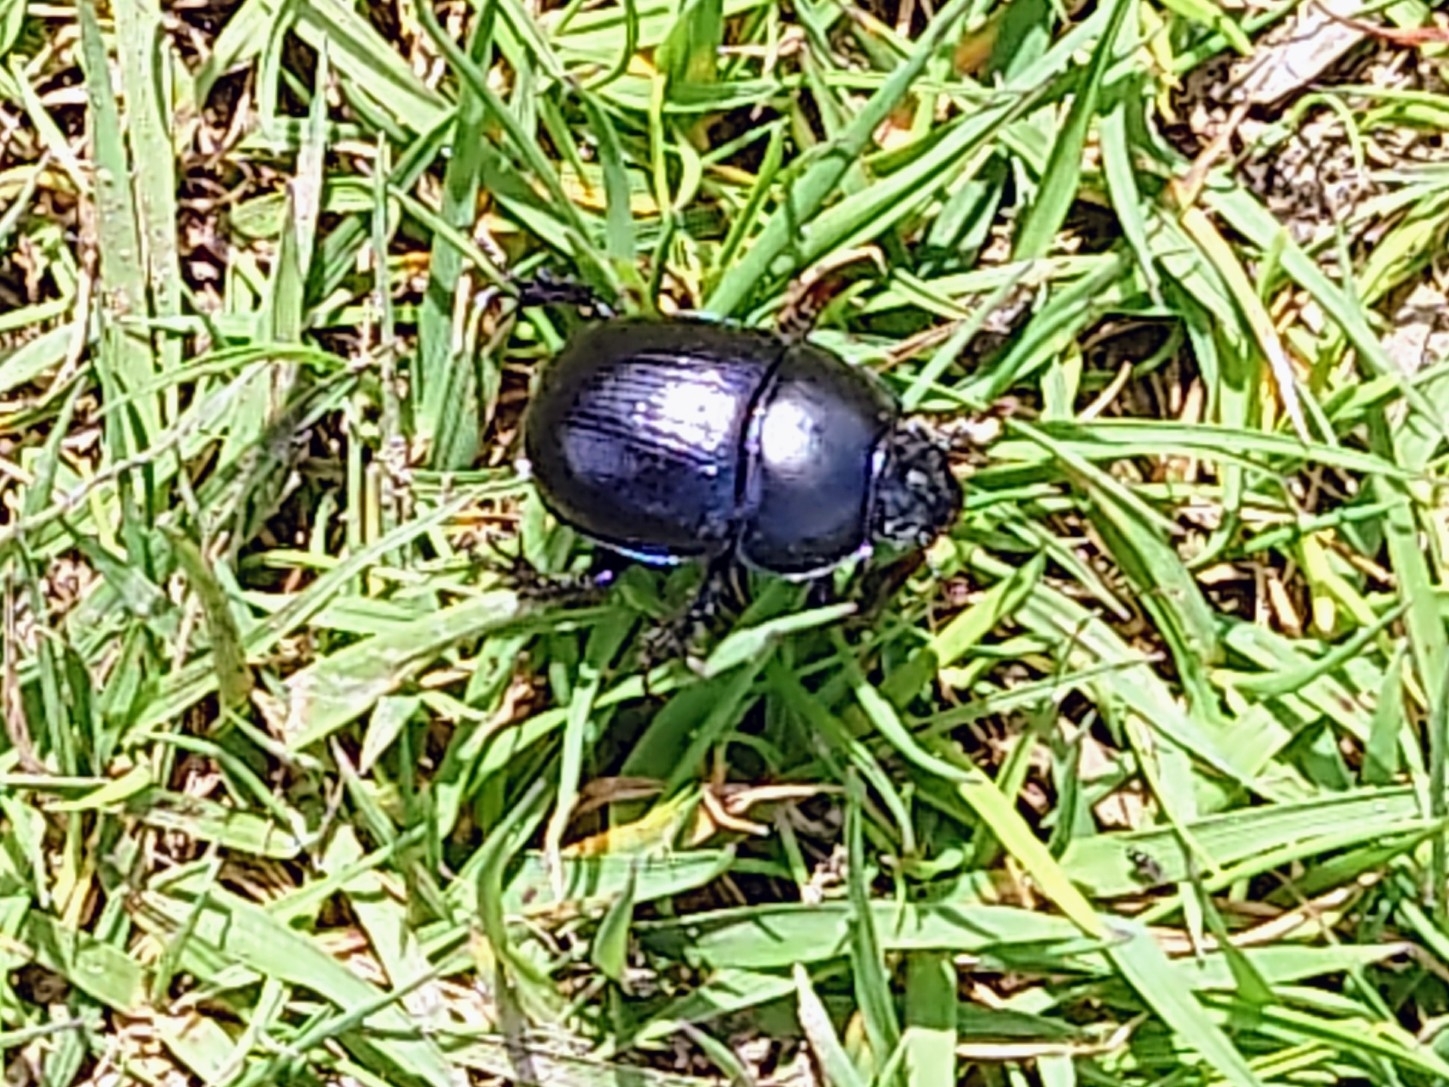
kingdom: Animalia
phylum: Arthropoda
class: Insecta
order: Coleoptera
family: Geotrupidae
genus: Anoplotrupes
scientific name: Anoplotrupes stercorosus
